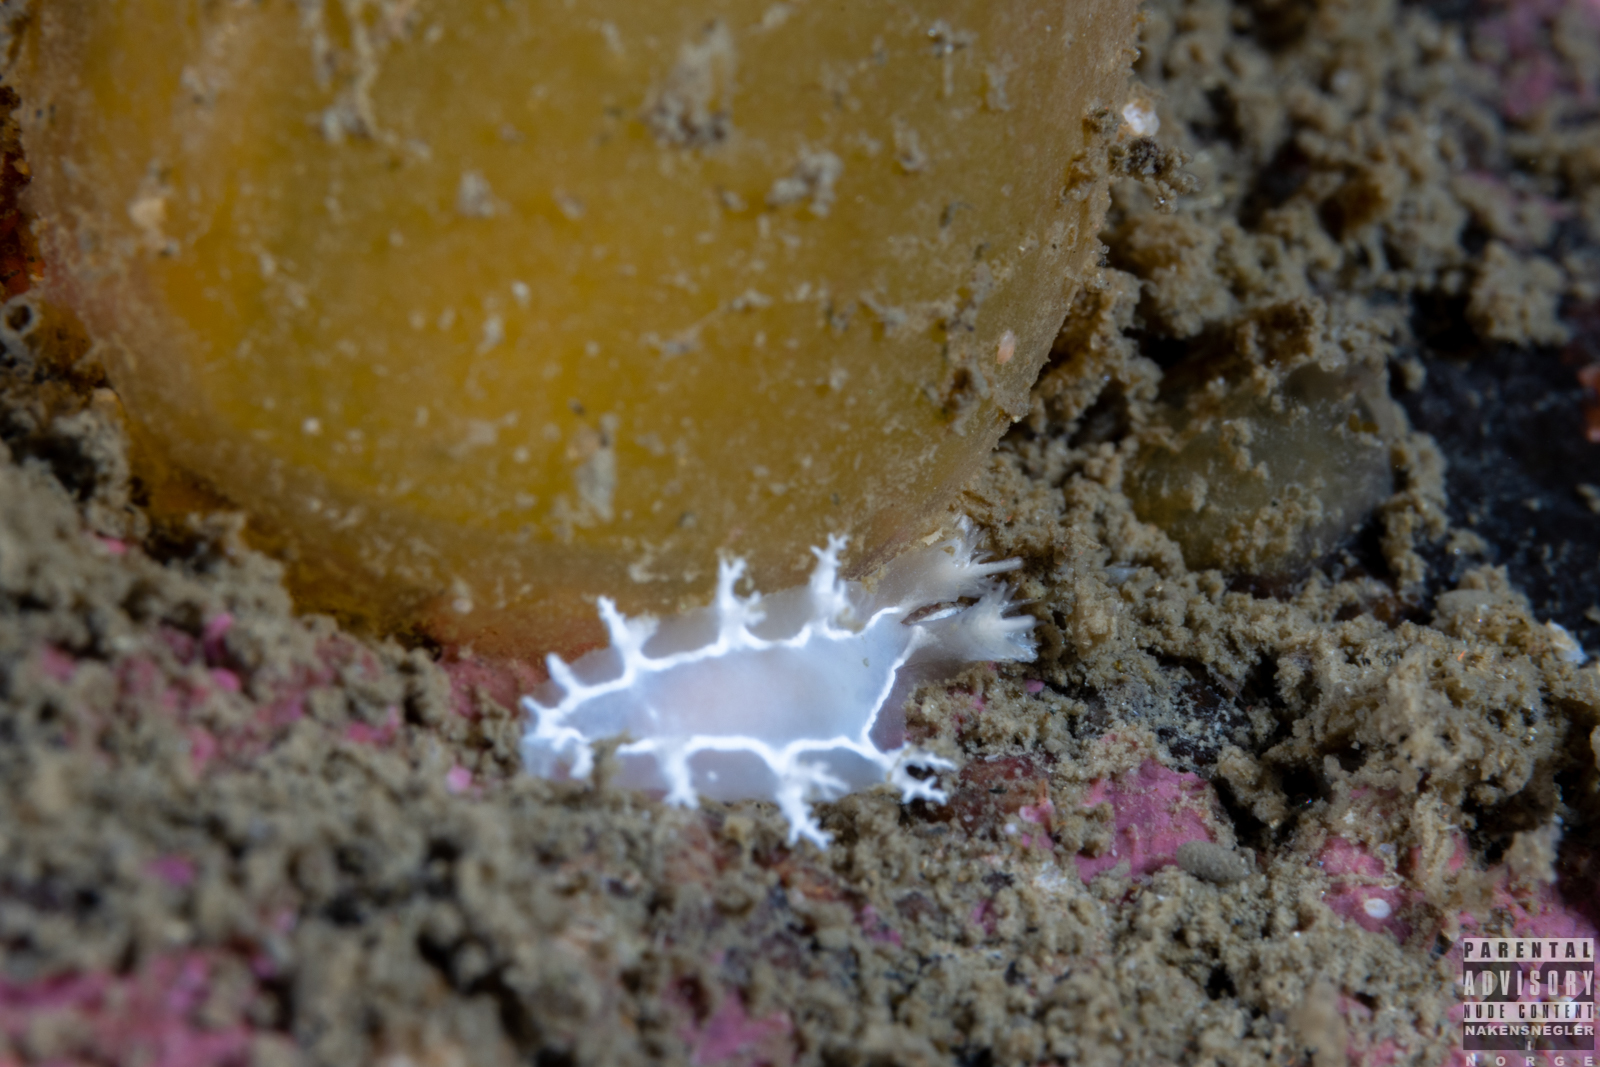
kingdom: Animalia
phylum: Mollusca
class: Gastropoda
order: Nudibranchia
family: Tritoniidae
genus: Duvaucelia
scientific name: Duvaucelia lineata
